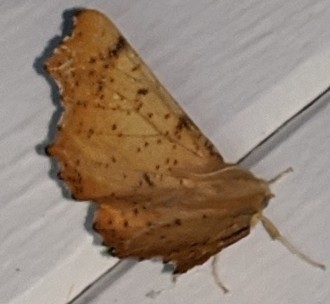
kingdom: Animalia
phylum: Arthropoda
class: Insecta
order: Lepidoptera
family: Geometridae
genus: Ennomos
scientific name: Ennomos magnaria
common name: Maple spanworm
